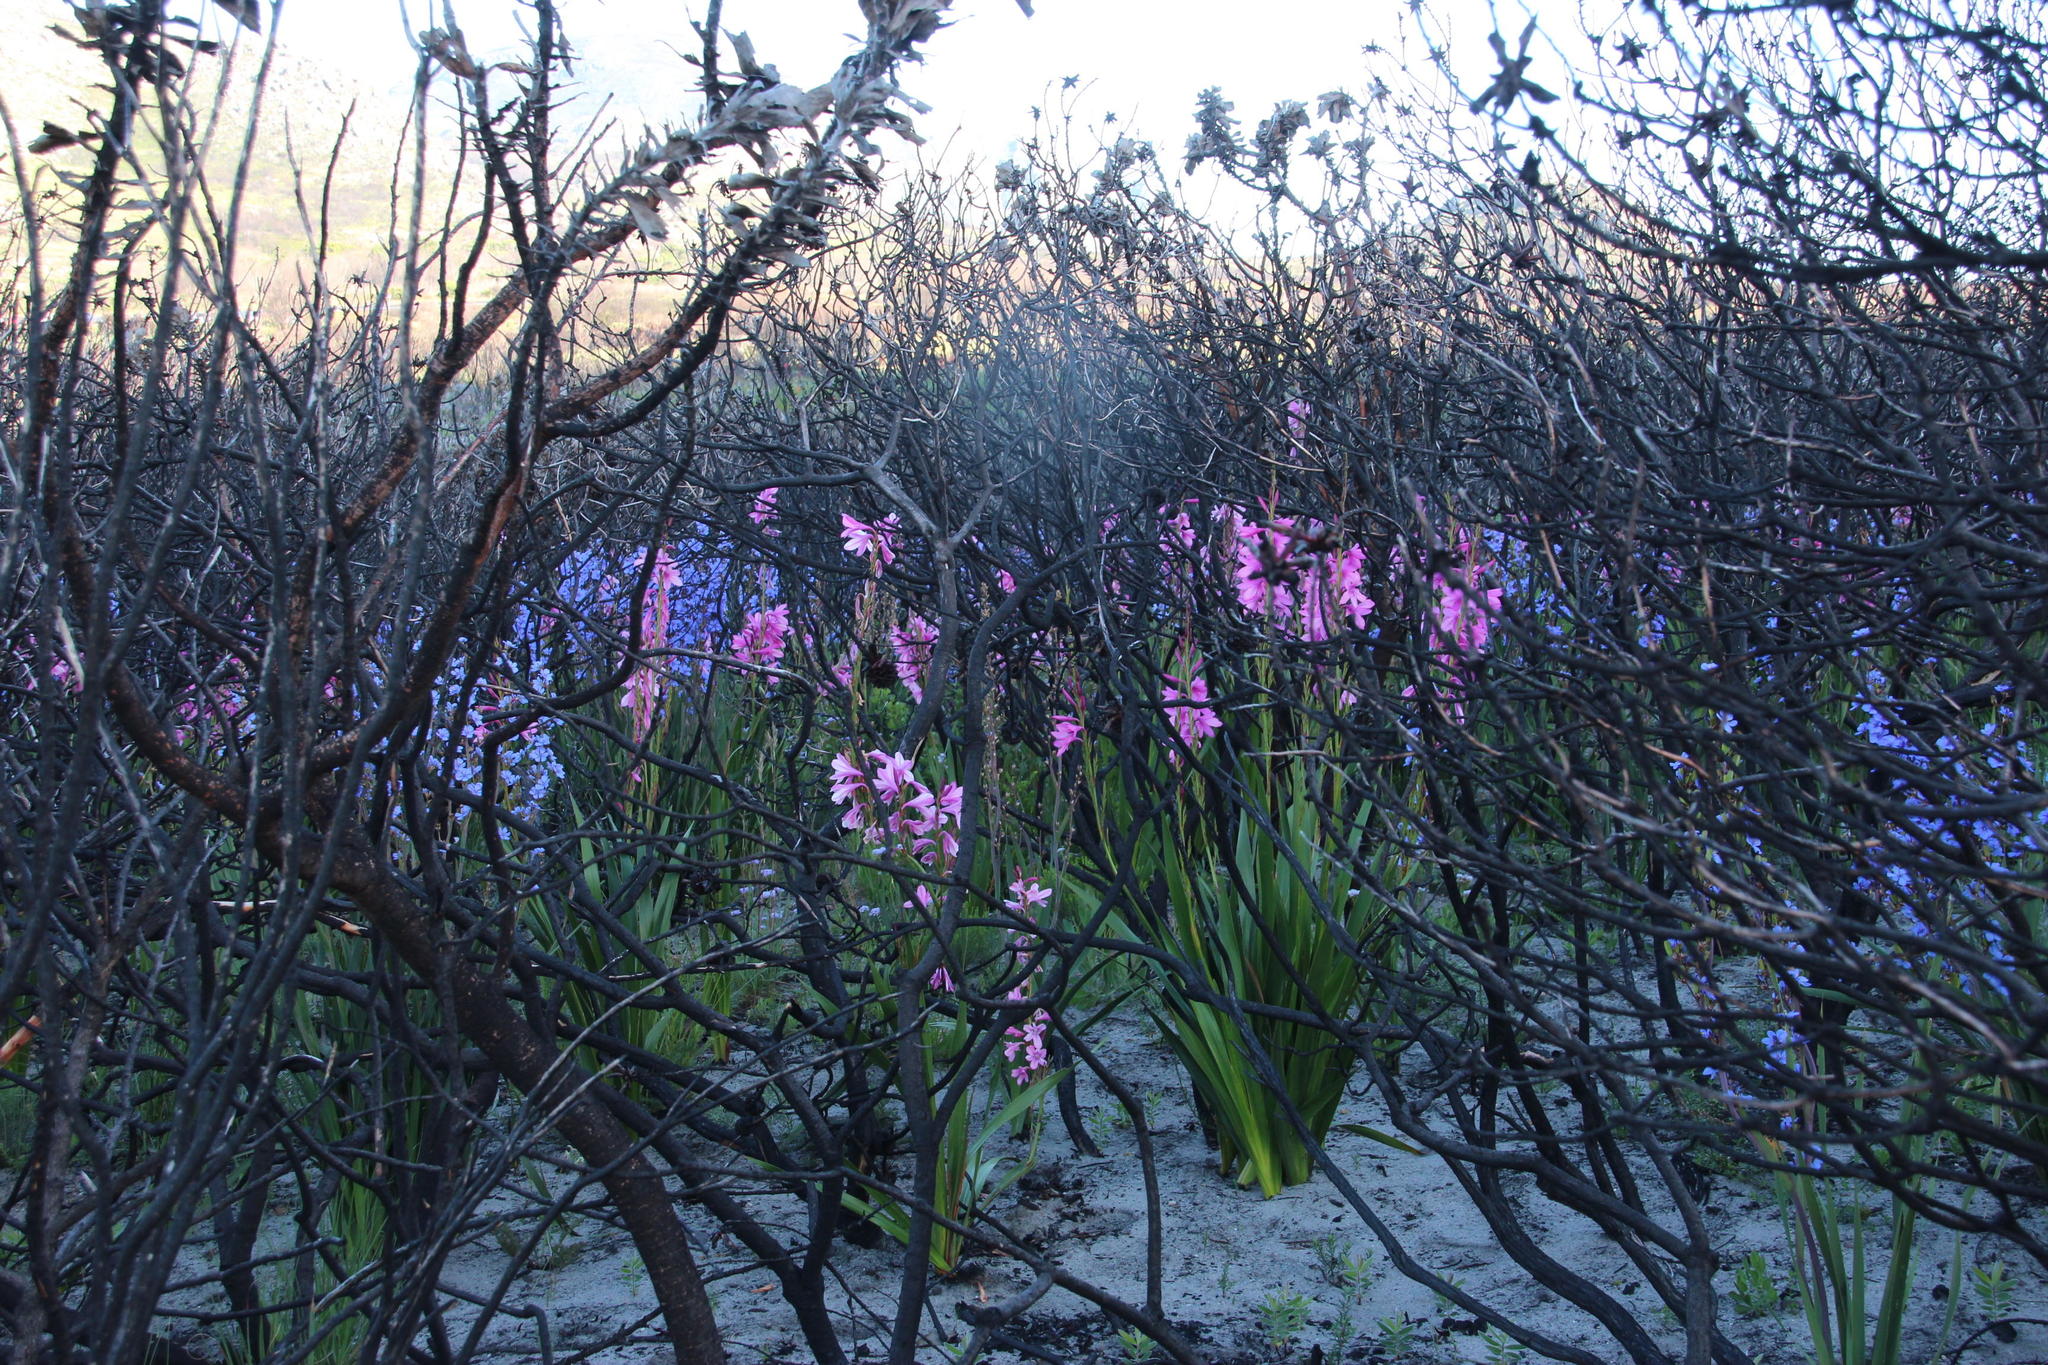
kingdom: Plantae
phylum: Tracheophyta
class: Liliopsida
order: Asparagales
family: Iridaceae
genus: Aristea
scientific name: Aristea bakeri
